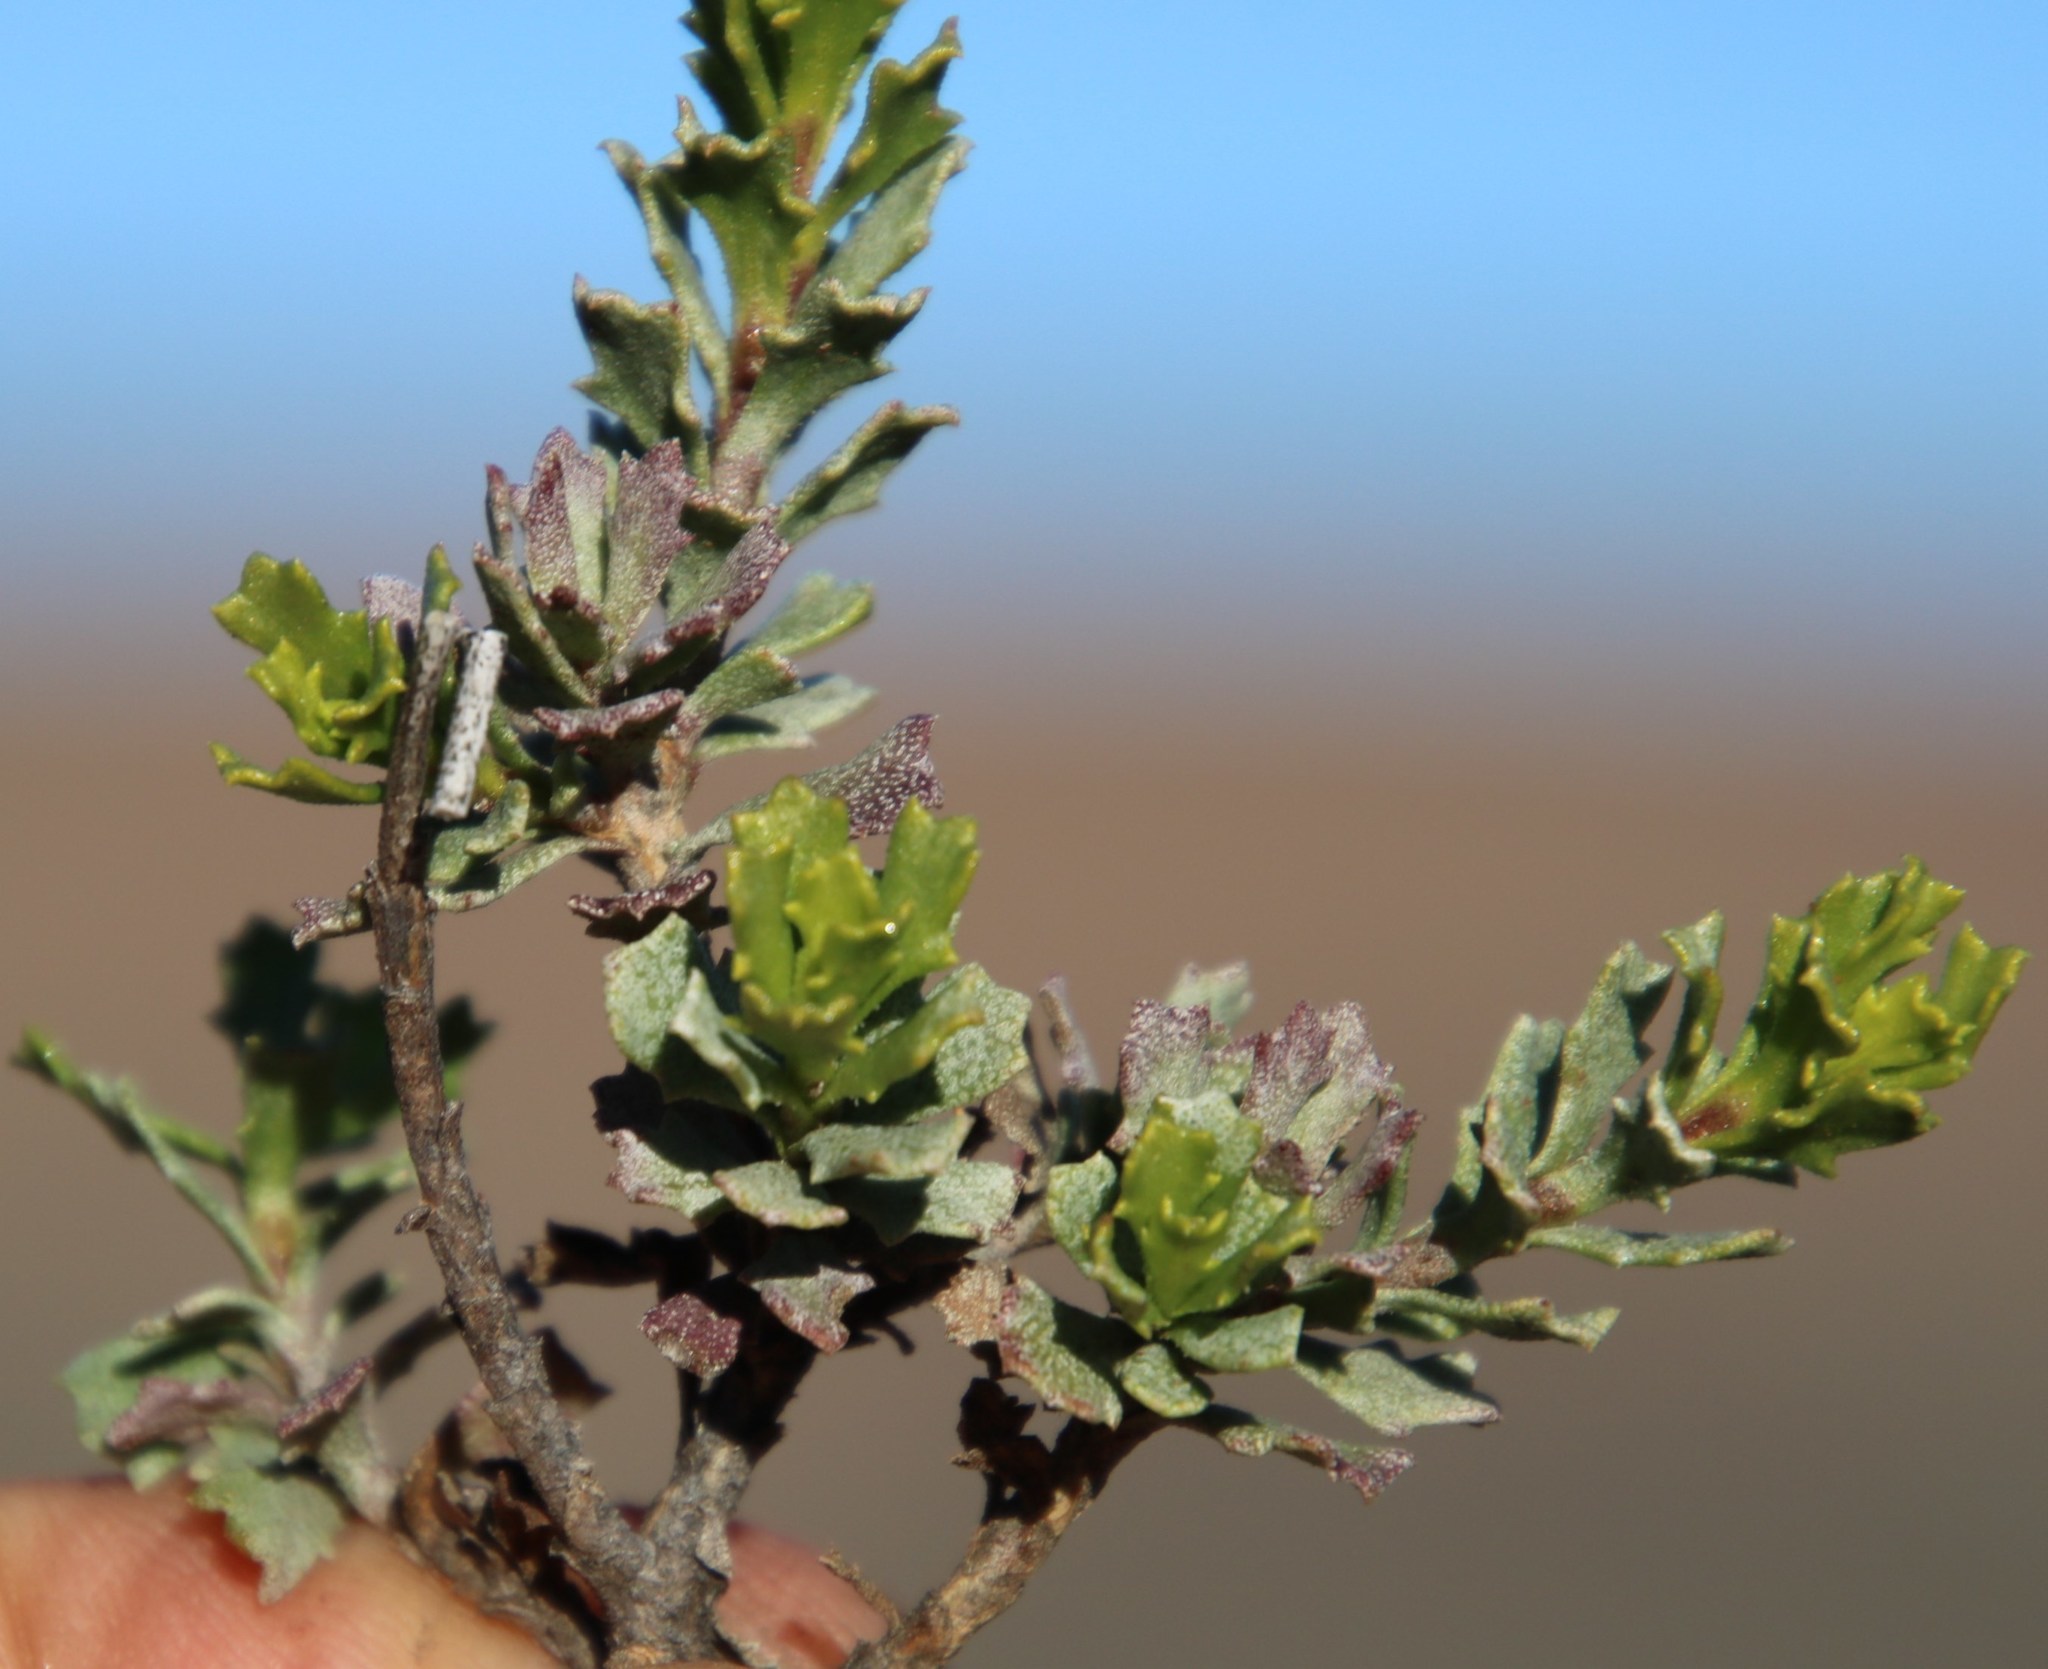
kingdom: Plantae
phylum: Tracheophyta
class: Magnoliopsida
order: Asterales
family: Asteraceae
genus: Dimorphotheca
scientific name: Dimorphotheca cuneata
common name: Daisy
